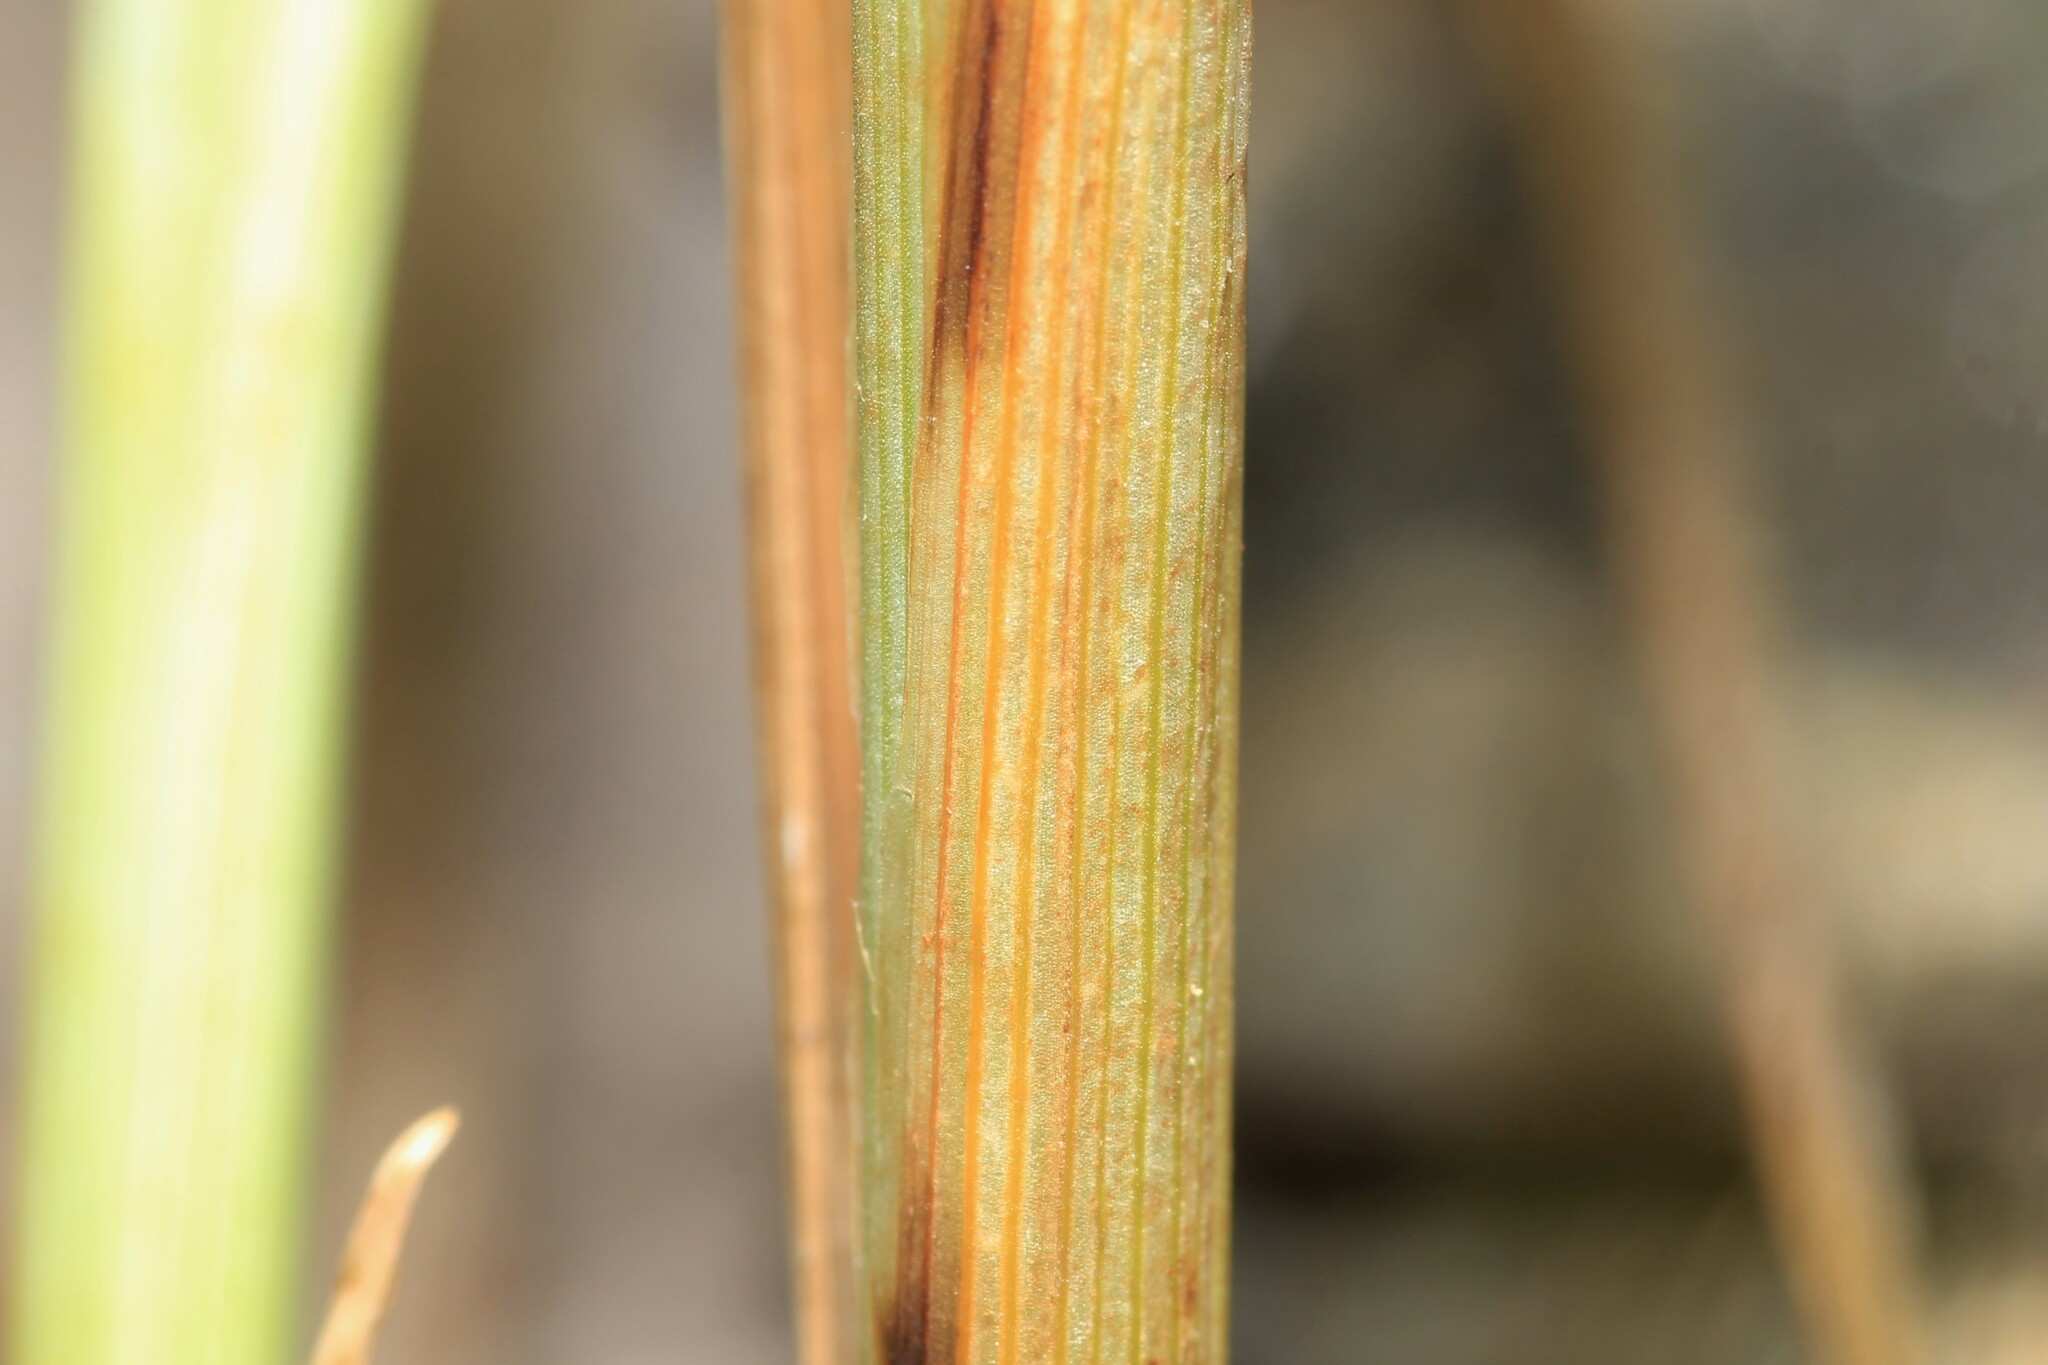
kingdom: Plantae
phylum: Tracheophyta
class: Liliopsida
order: Poales
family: Cyperaceae
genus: Carex
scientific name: Carex merritt-fernaldii
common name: Fernald's oval sedge
